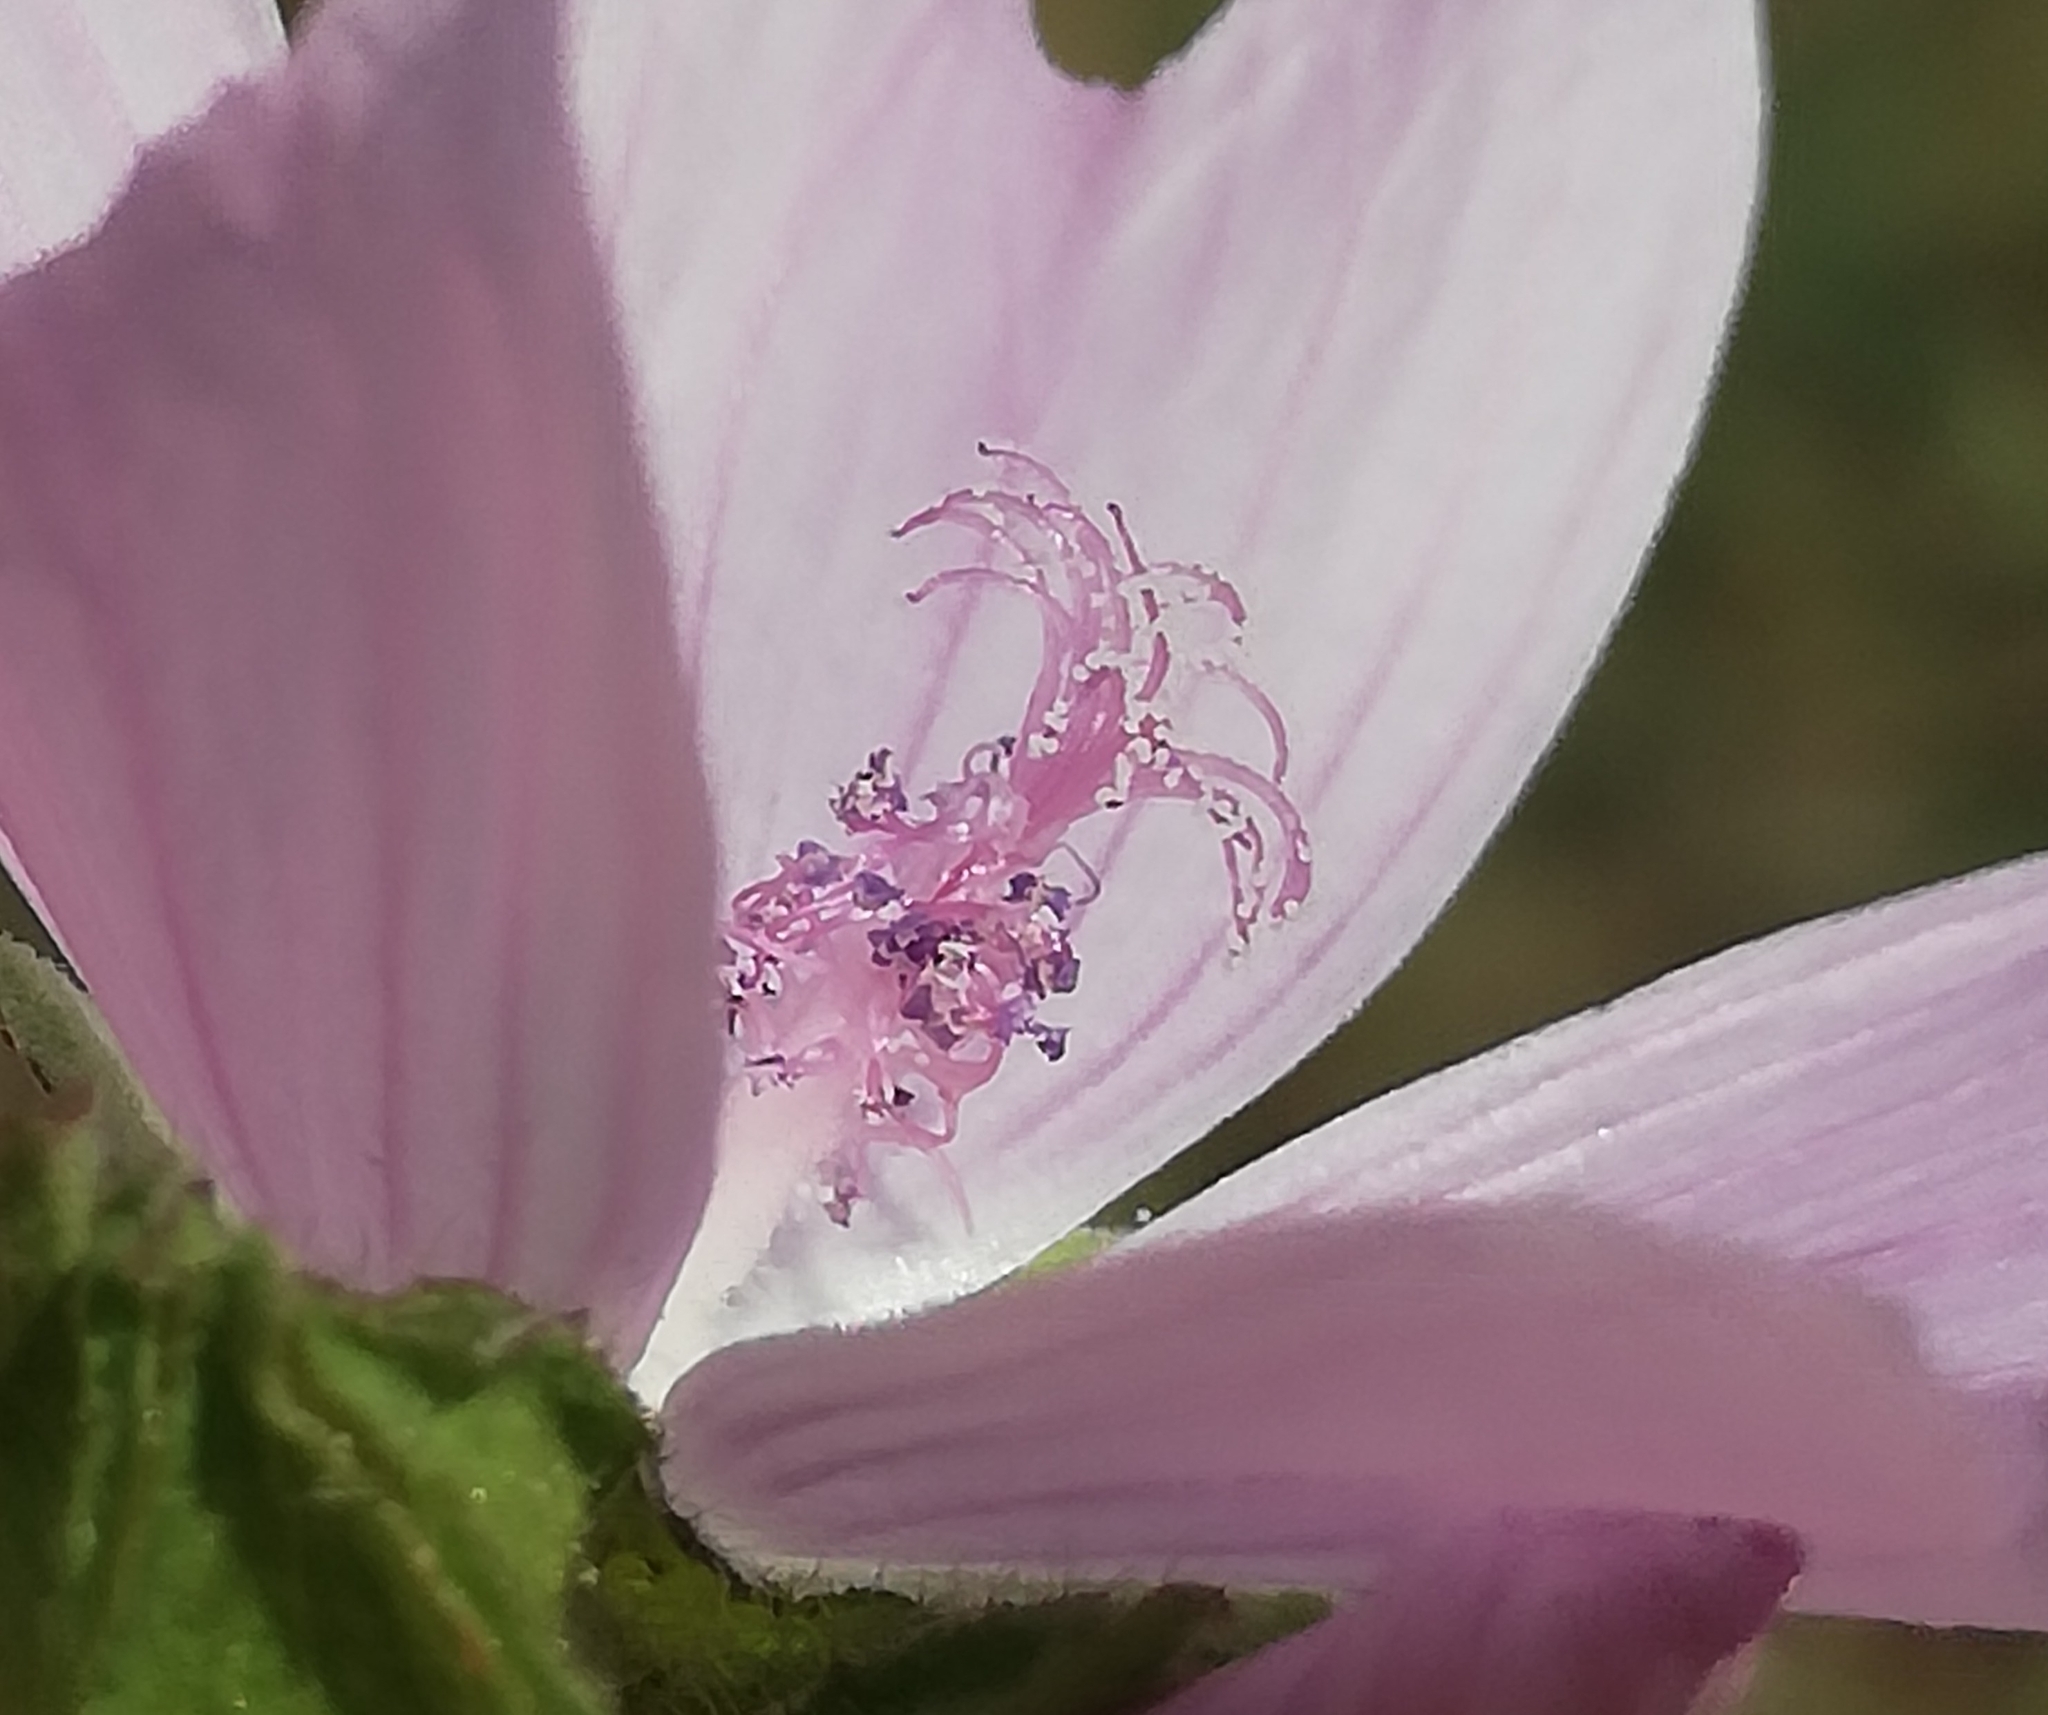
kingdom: Plantae
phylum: Tracheophyta
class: Magnoliopsida
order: Malvales
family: Malvaceae
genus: Malva
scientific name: Malva moschata
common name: Musk mallow
